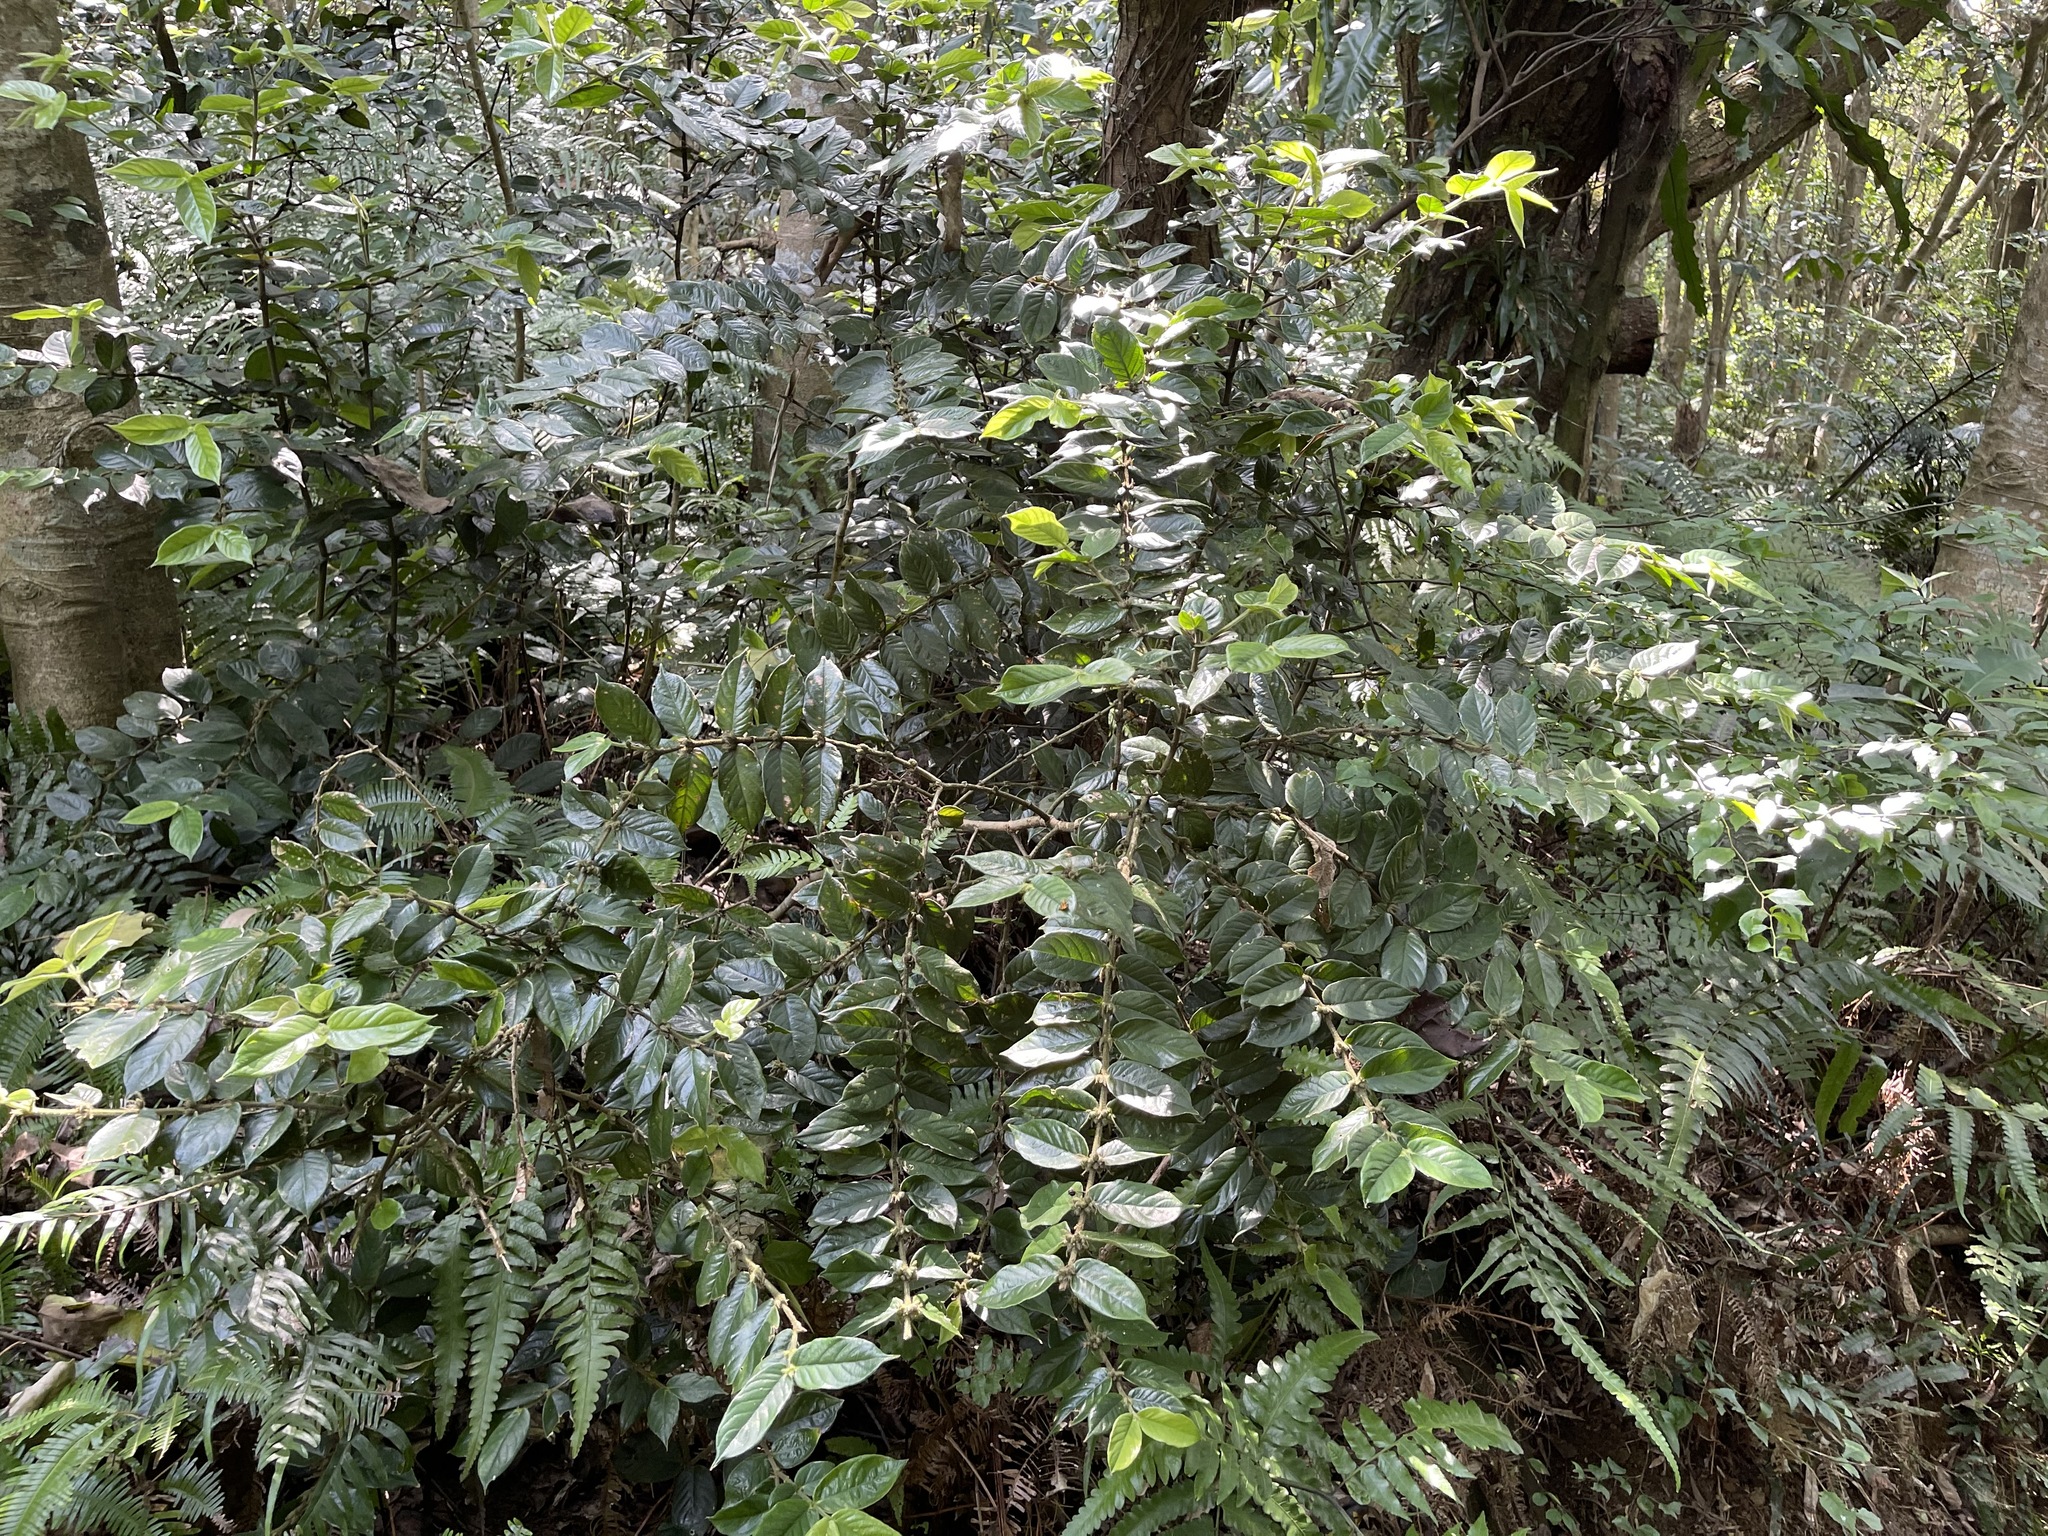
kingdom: Plantae
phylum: Tracheophyta
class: Magnoliopsida
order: Gentianales
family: Rubiaceae
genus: Lasianthus
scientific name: Lasianthus attenuatus
